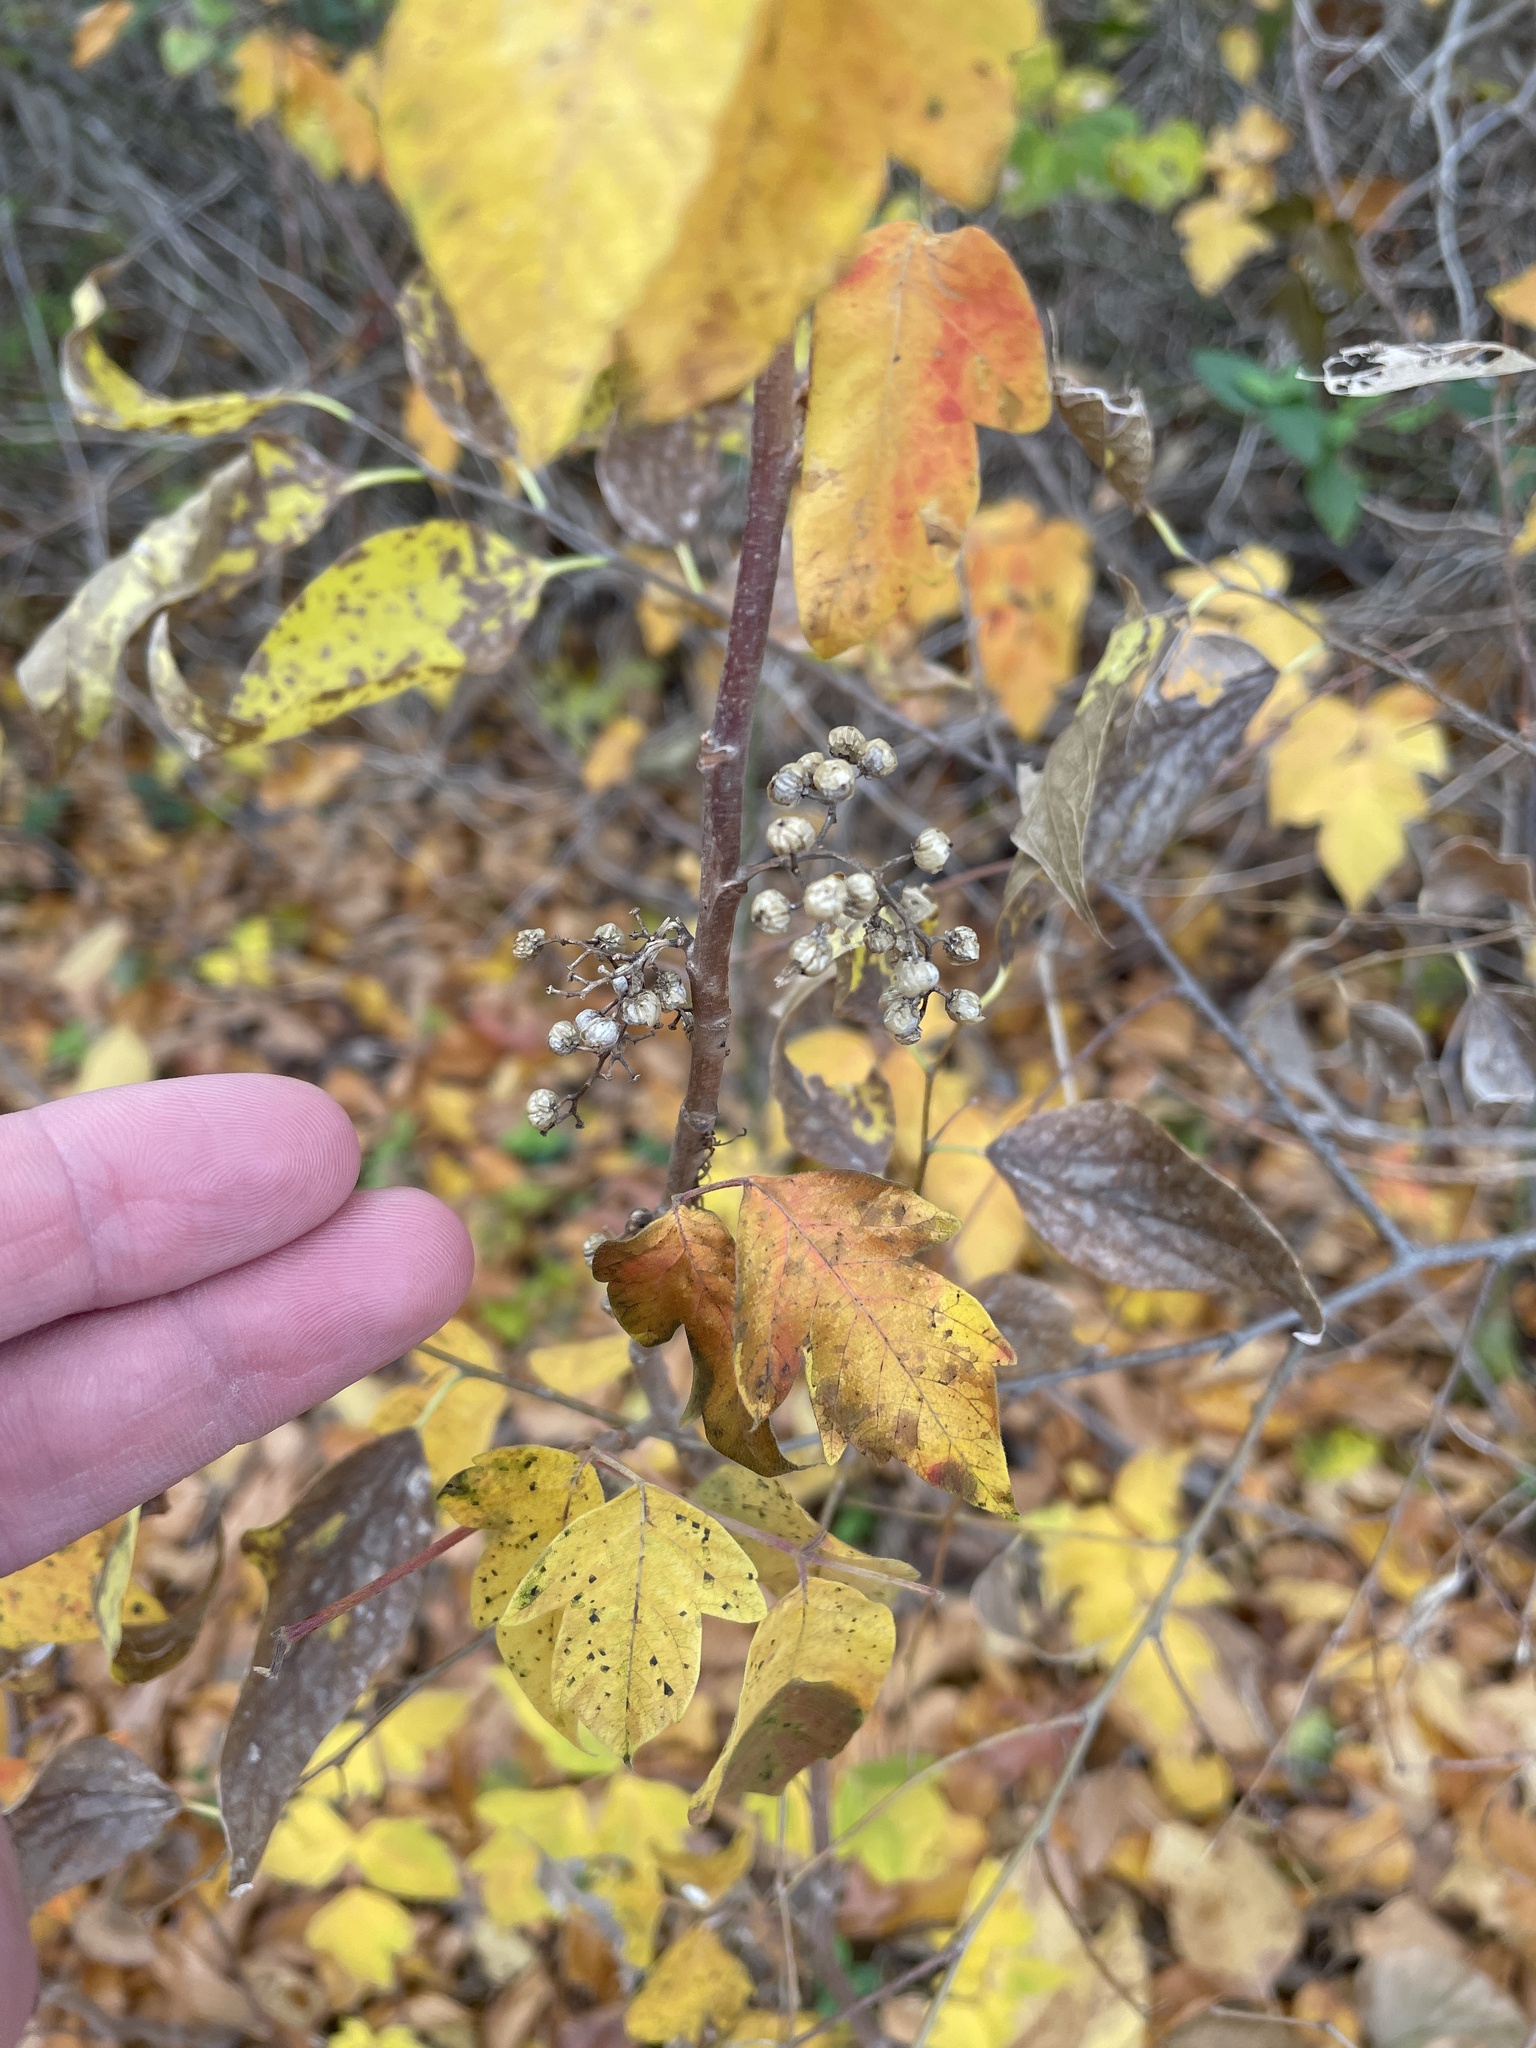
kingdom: Plantae
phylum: Tracheophyta
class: Magnoliopsida
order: Sapindales
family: Anacardiaceae
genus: Toxicodendron
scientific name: Toxicodendron radicans
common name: Poison ivy
